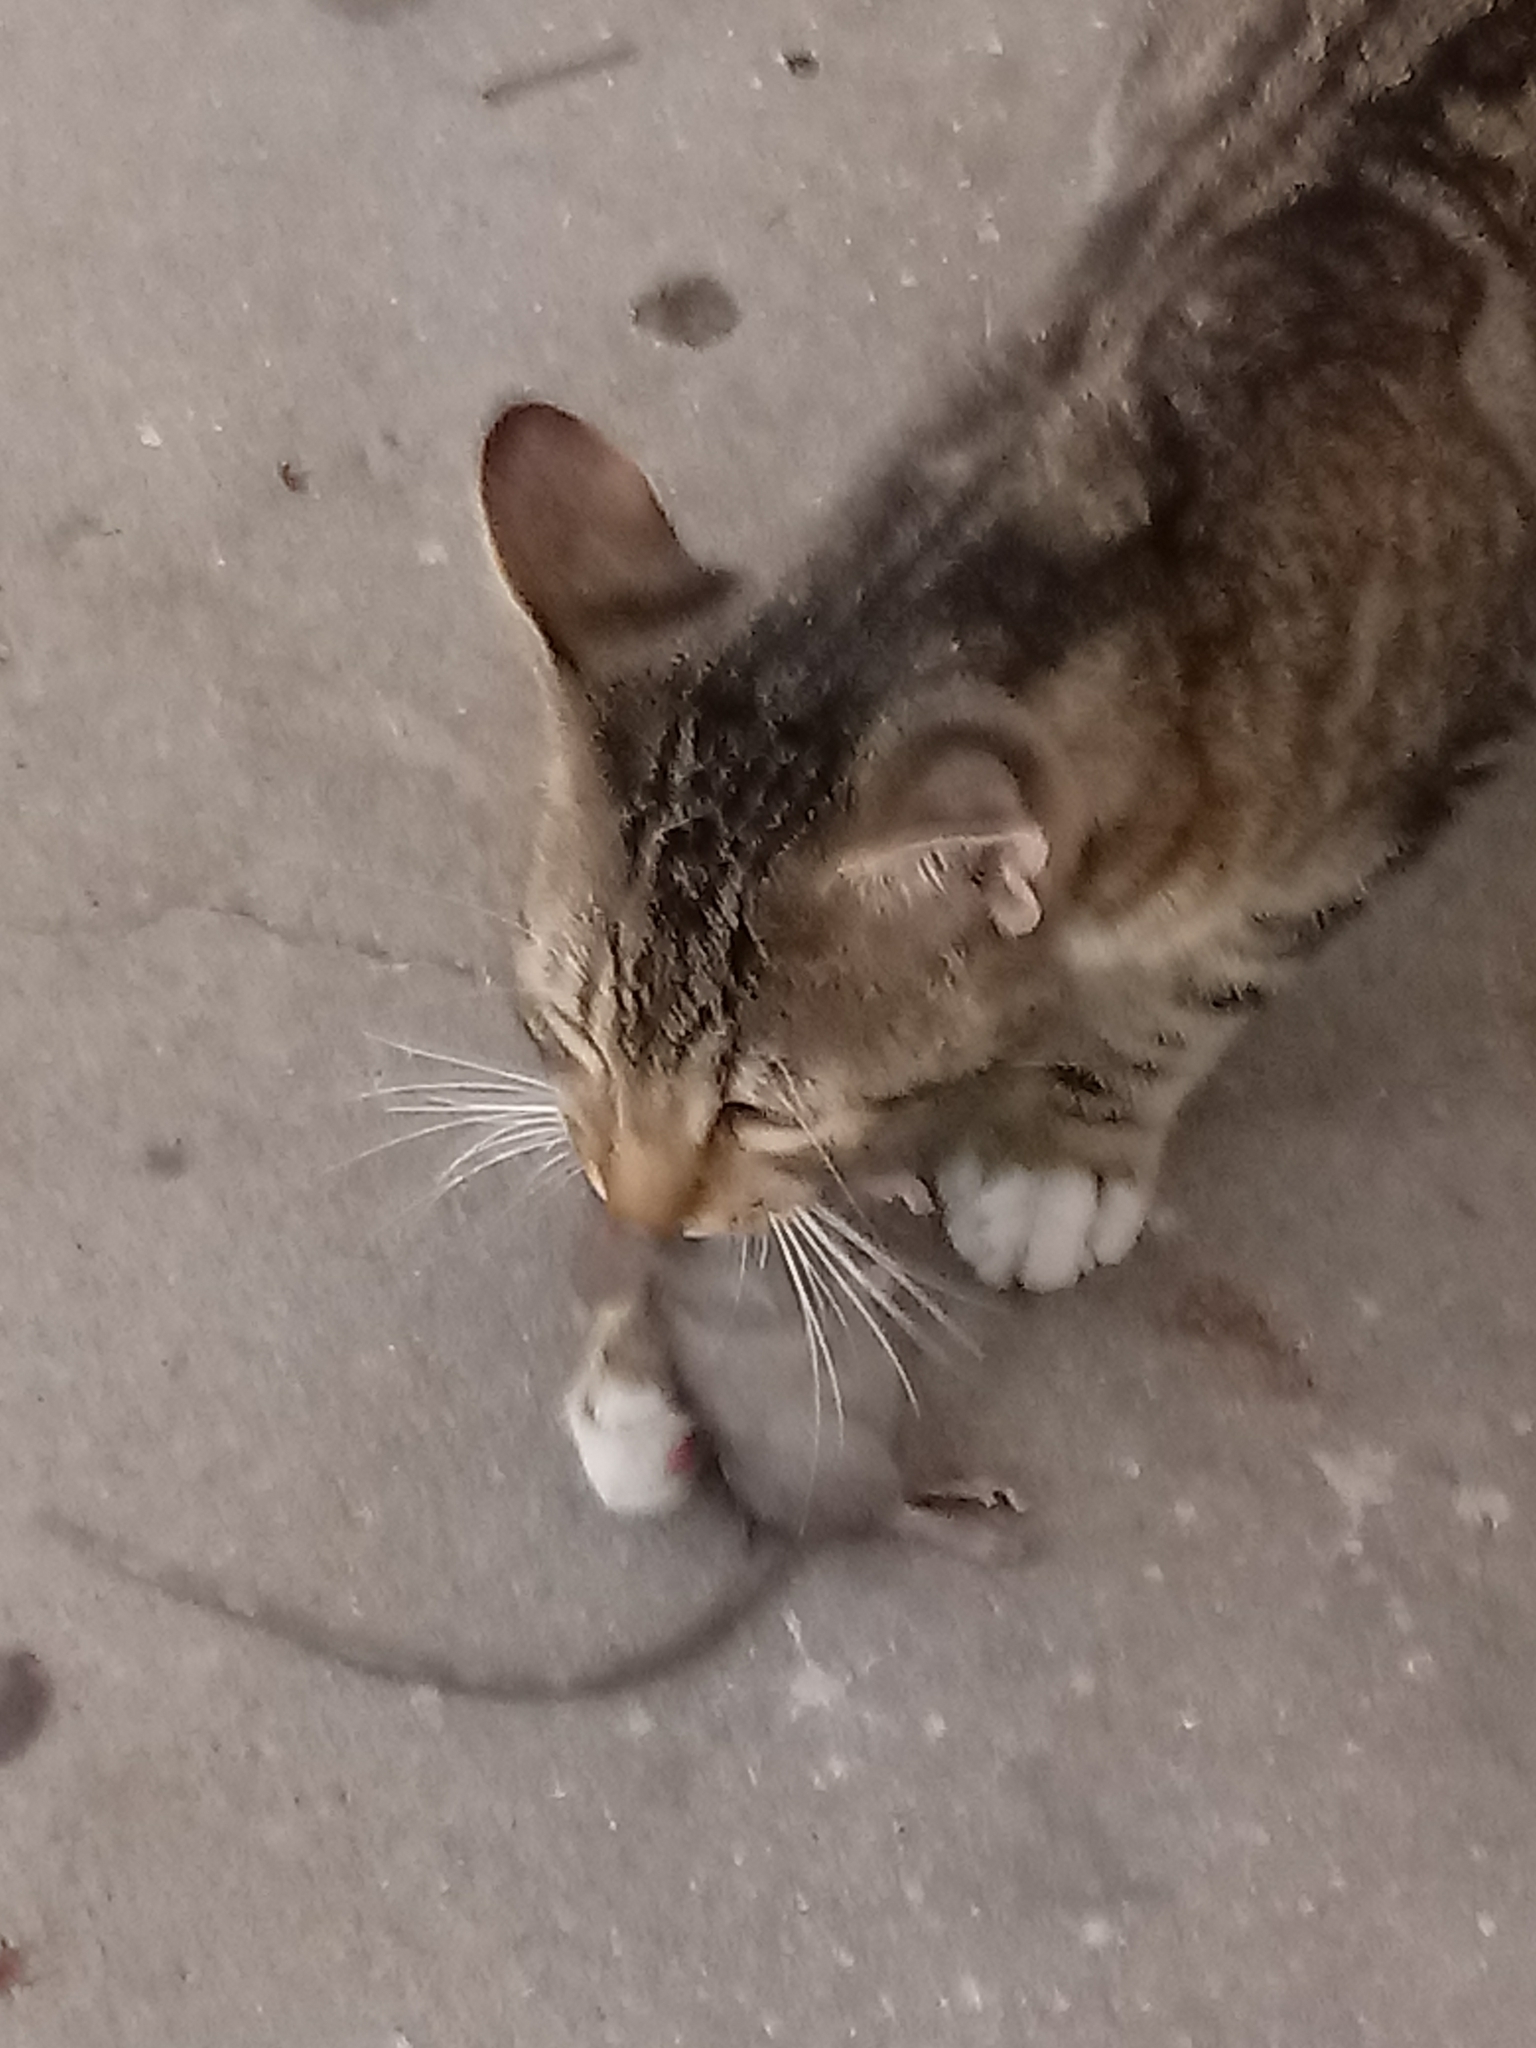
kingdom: Animalia
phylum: Chordata
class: Mammalia
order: Carnivora
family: Felidae
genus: Felis
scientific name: Felis catus
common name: Domestic cat
